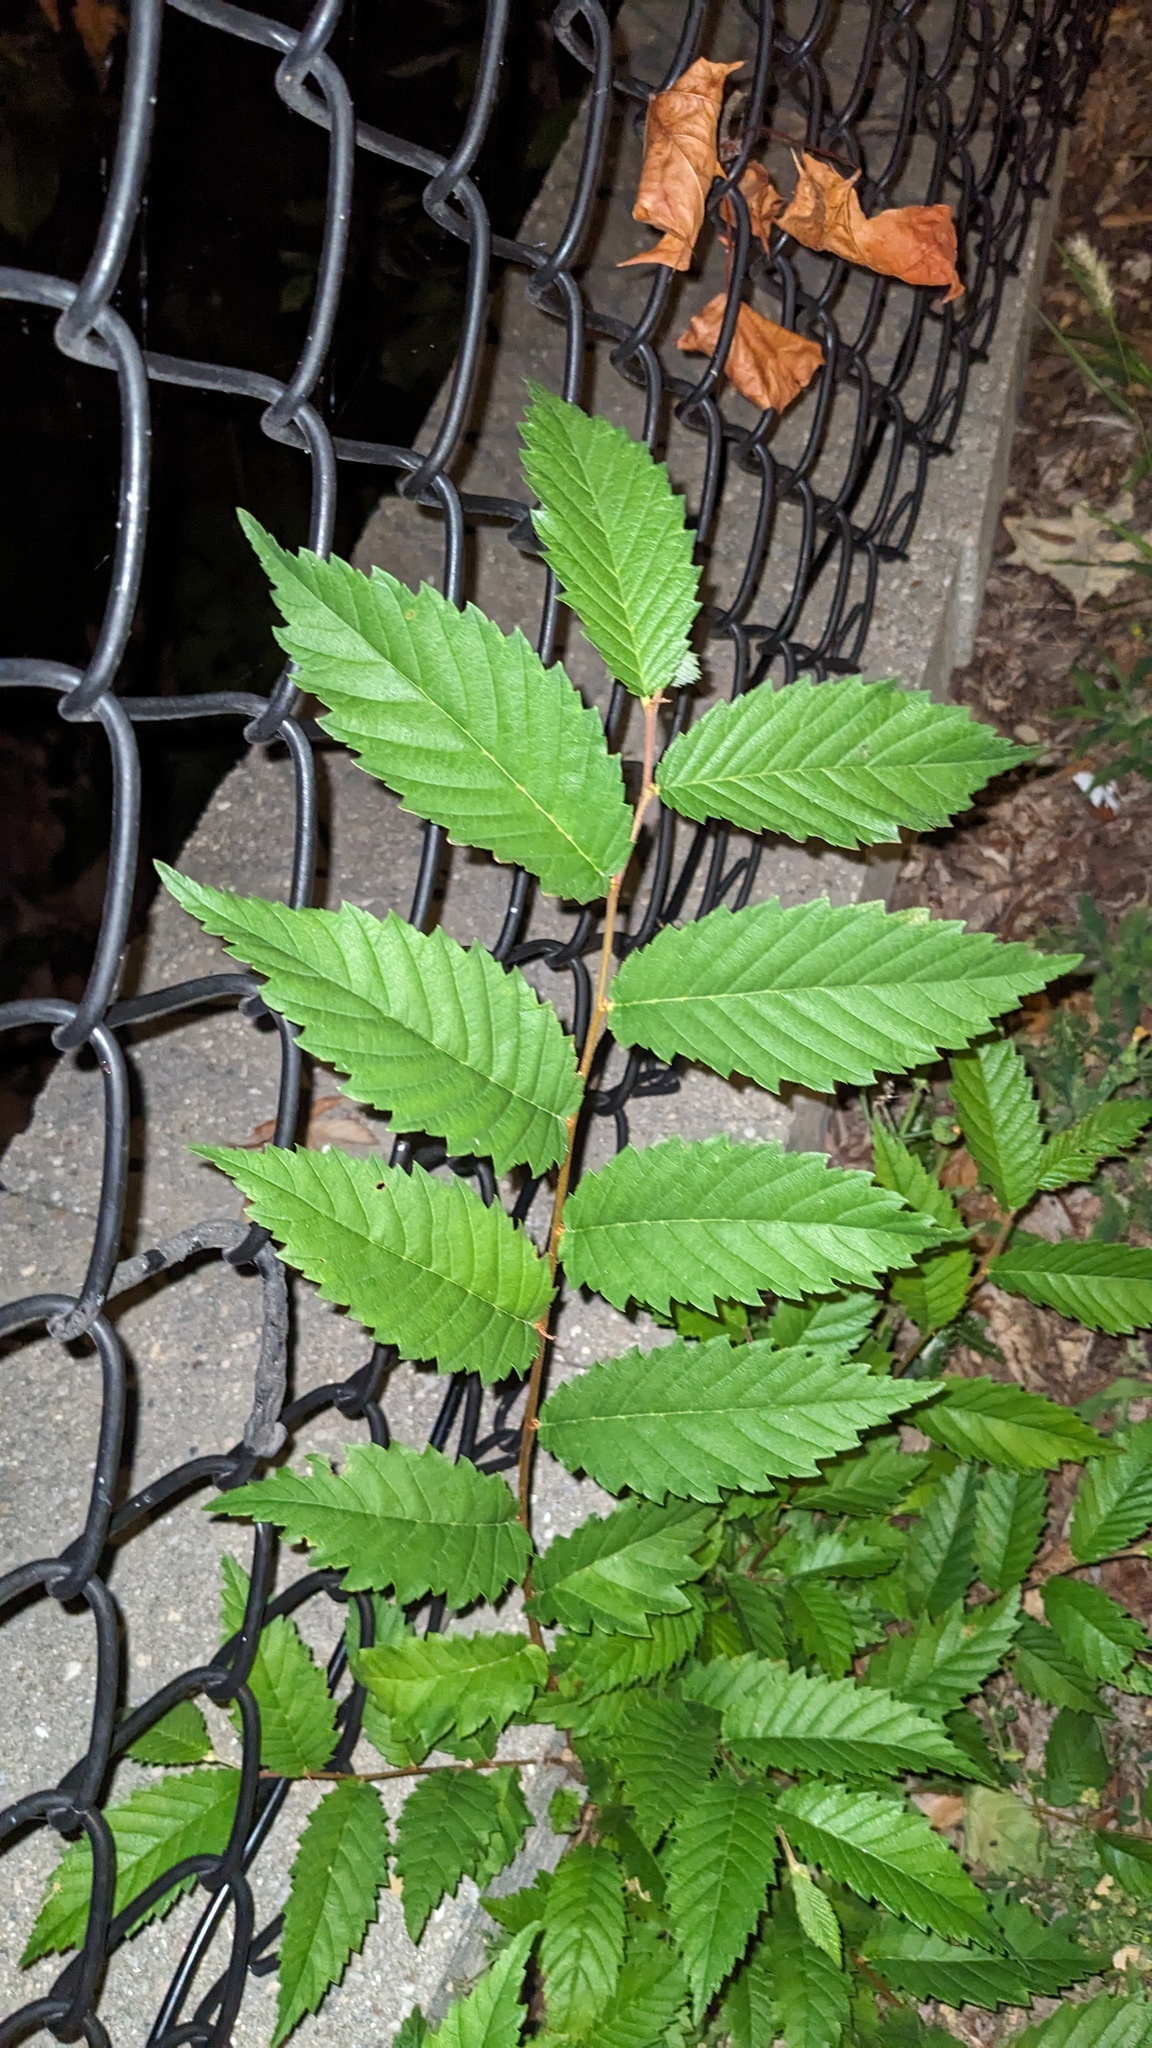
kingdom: Plantae
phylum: Tracheophyta
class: Magnoliopsida
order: Rosales
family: Ulmaceae
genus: Ulmus
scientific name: Ulmus pumila
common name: Siberian elm
